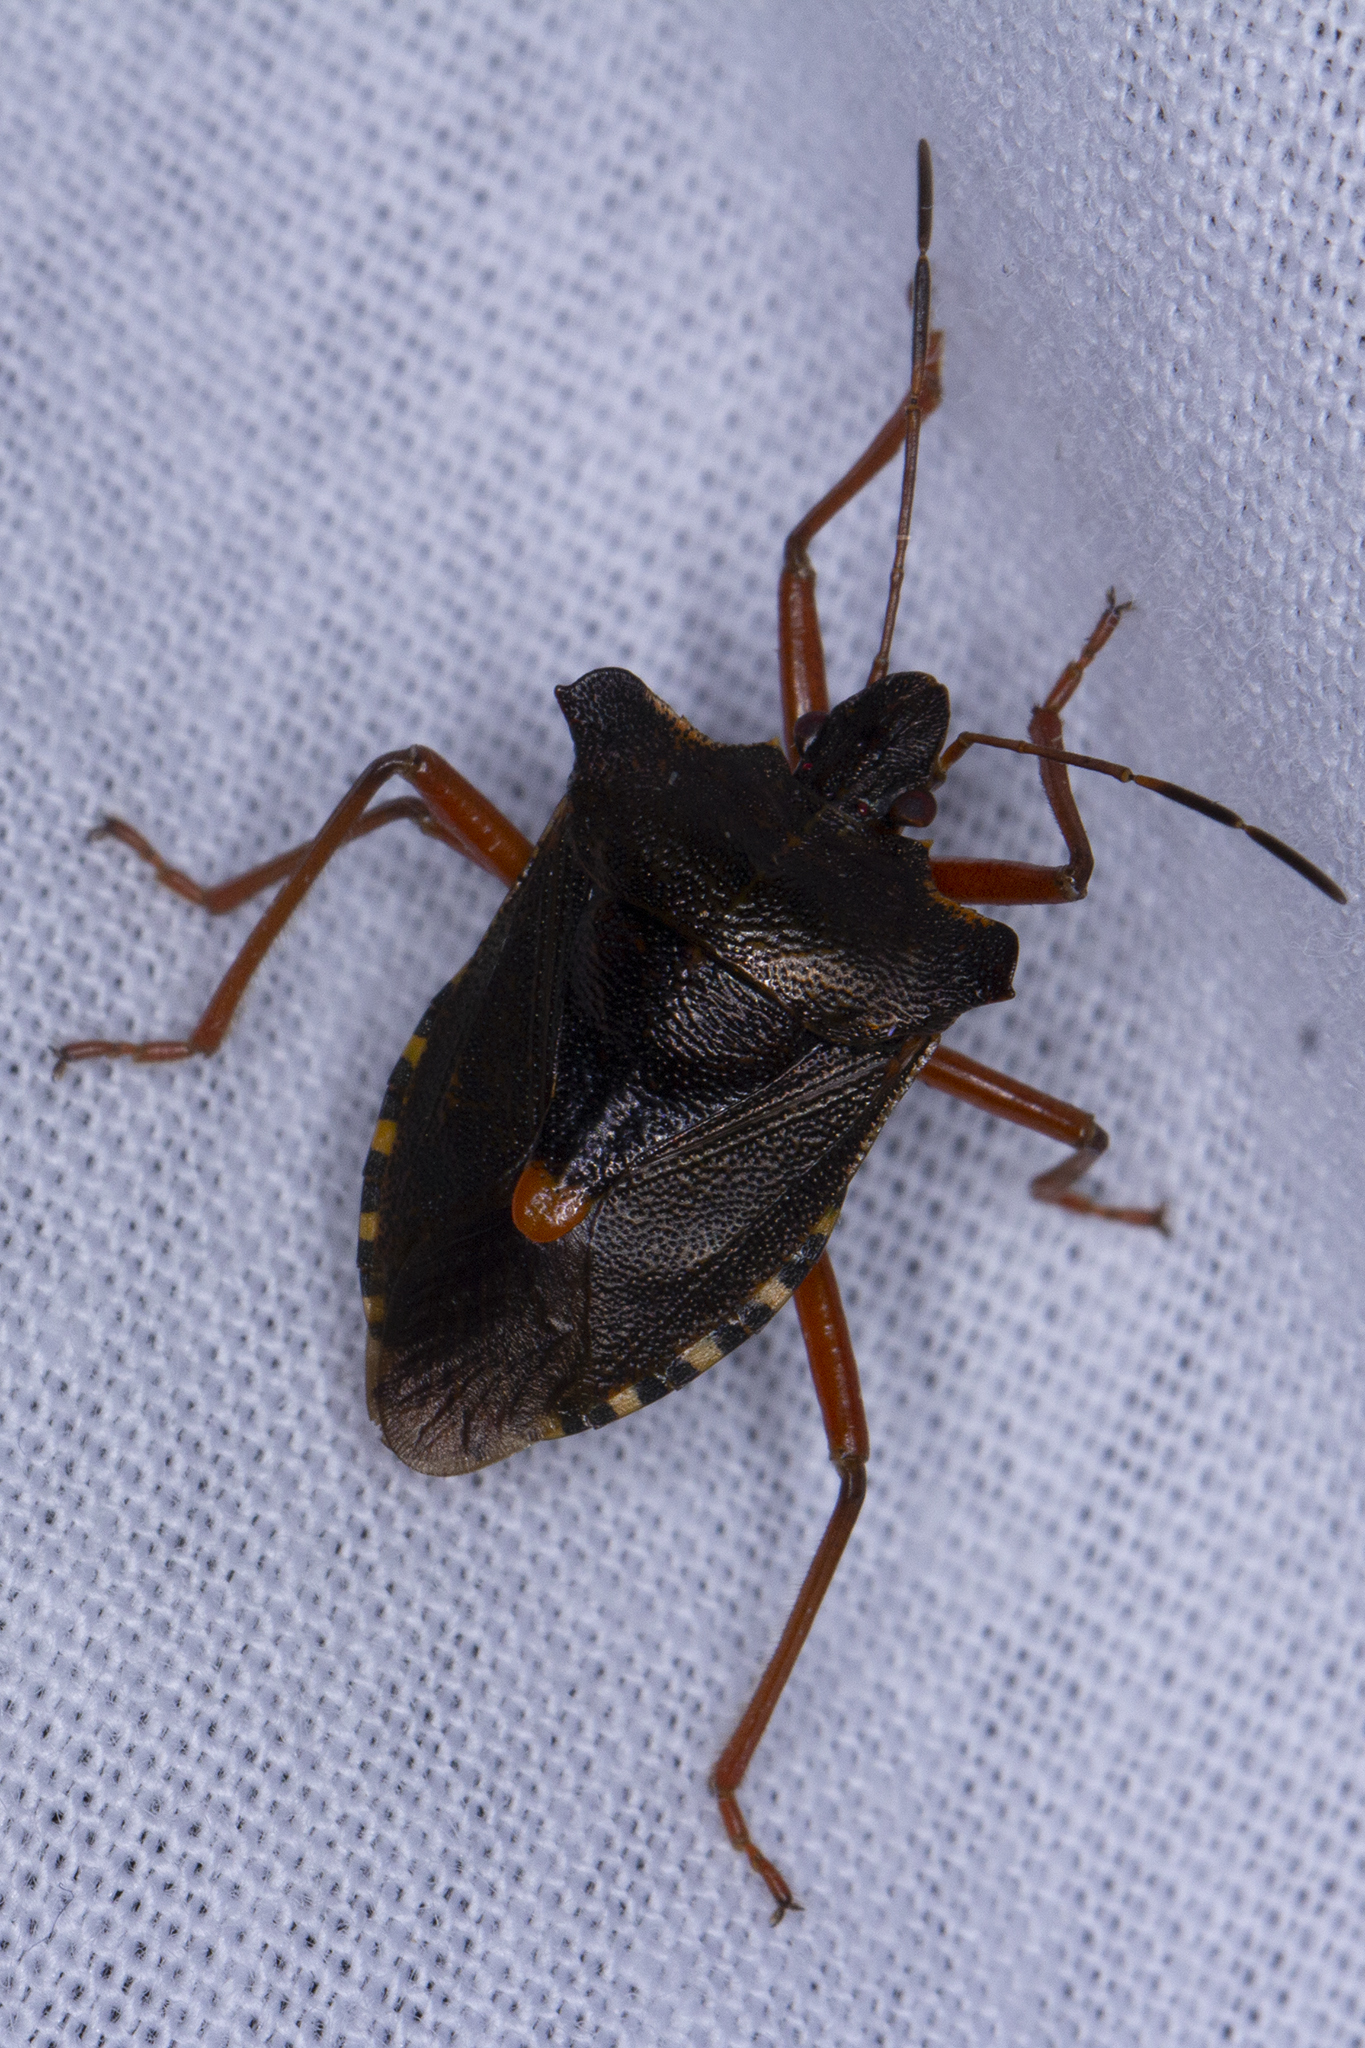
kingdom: Animalia
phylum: Arthropoda
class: Insecta
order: Hemiptera
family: Pentatomidae
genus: Pentatoma
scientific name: Pentatoma rufipes
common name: Forest bug
